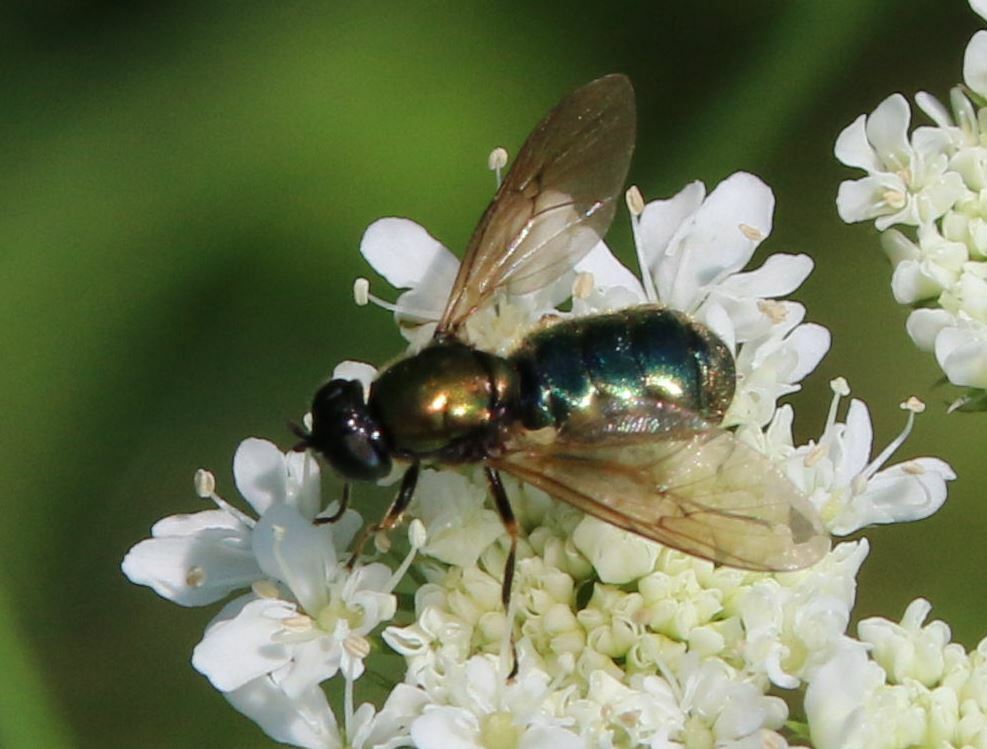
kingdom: Animalia
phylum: Arthropoda
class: Insecta
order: Diptera
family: Stratiomyidae
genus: Chloromyia
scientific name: Chloromyia formosa
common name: Soldier fly
